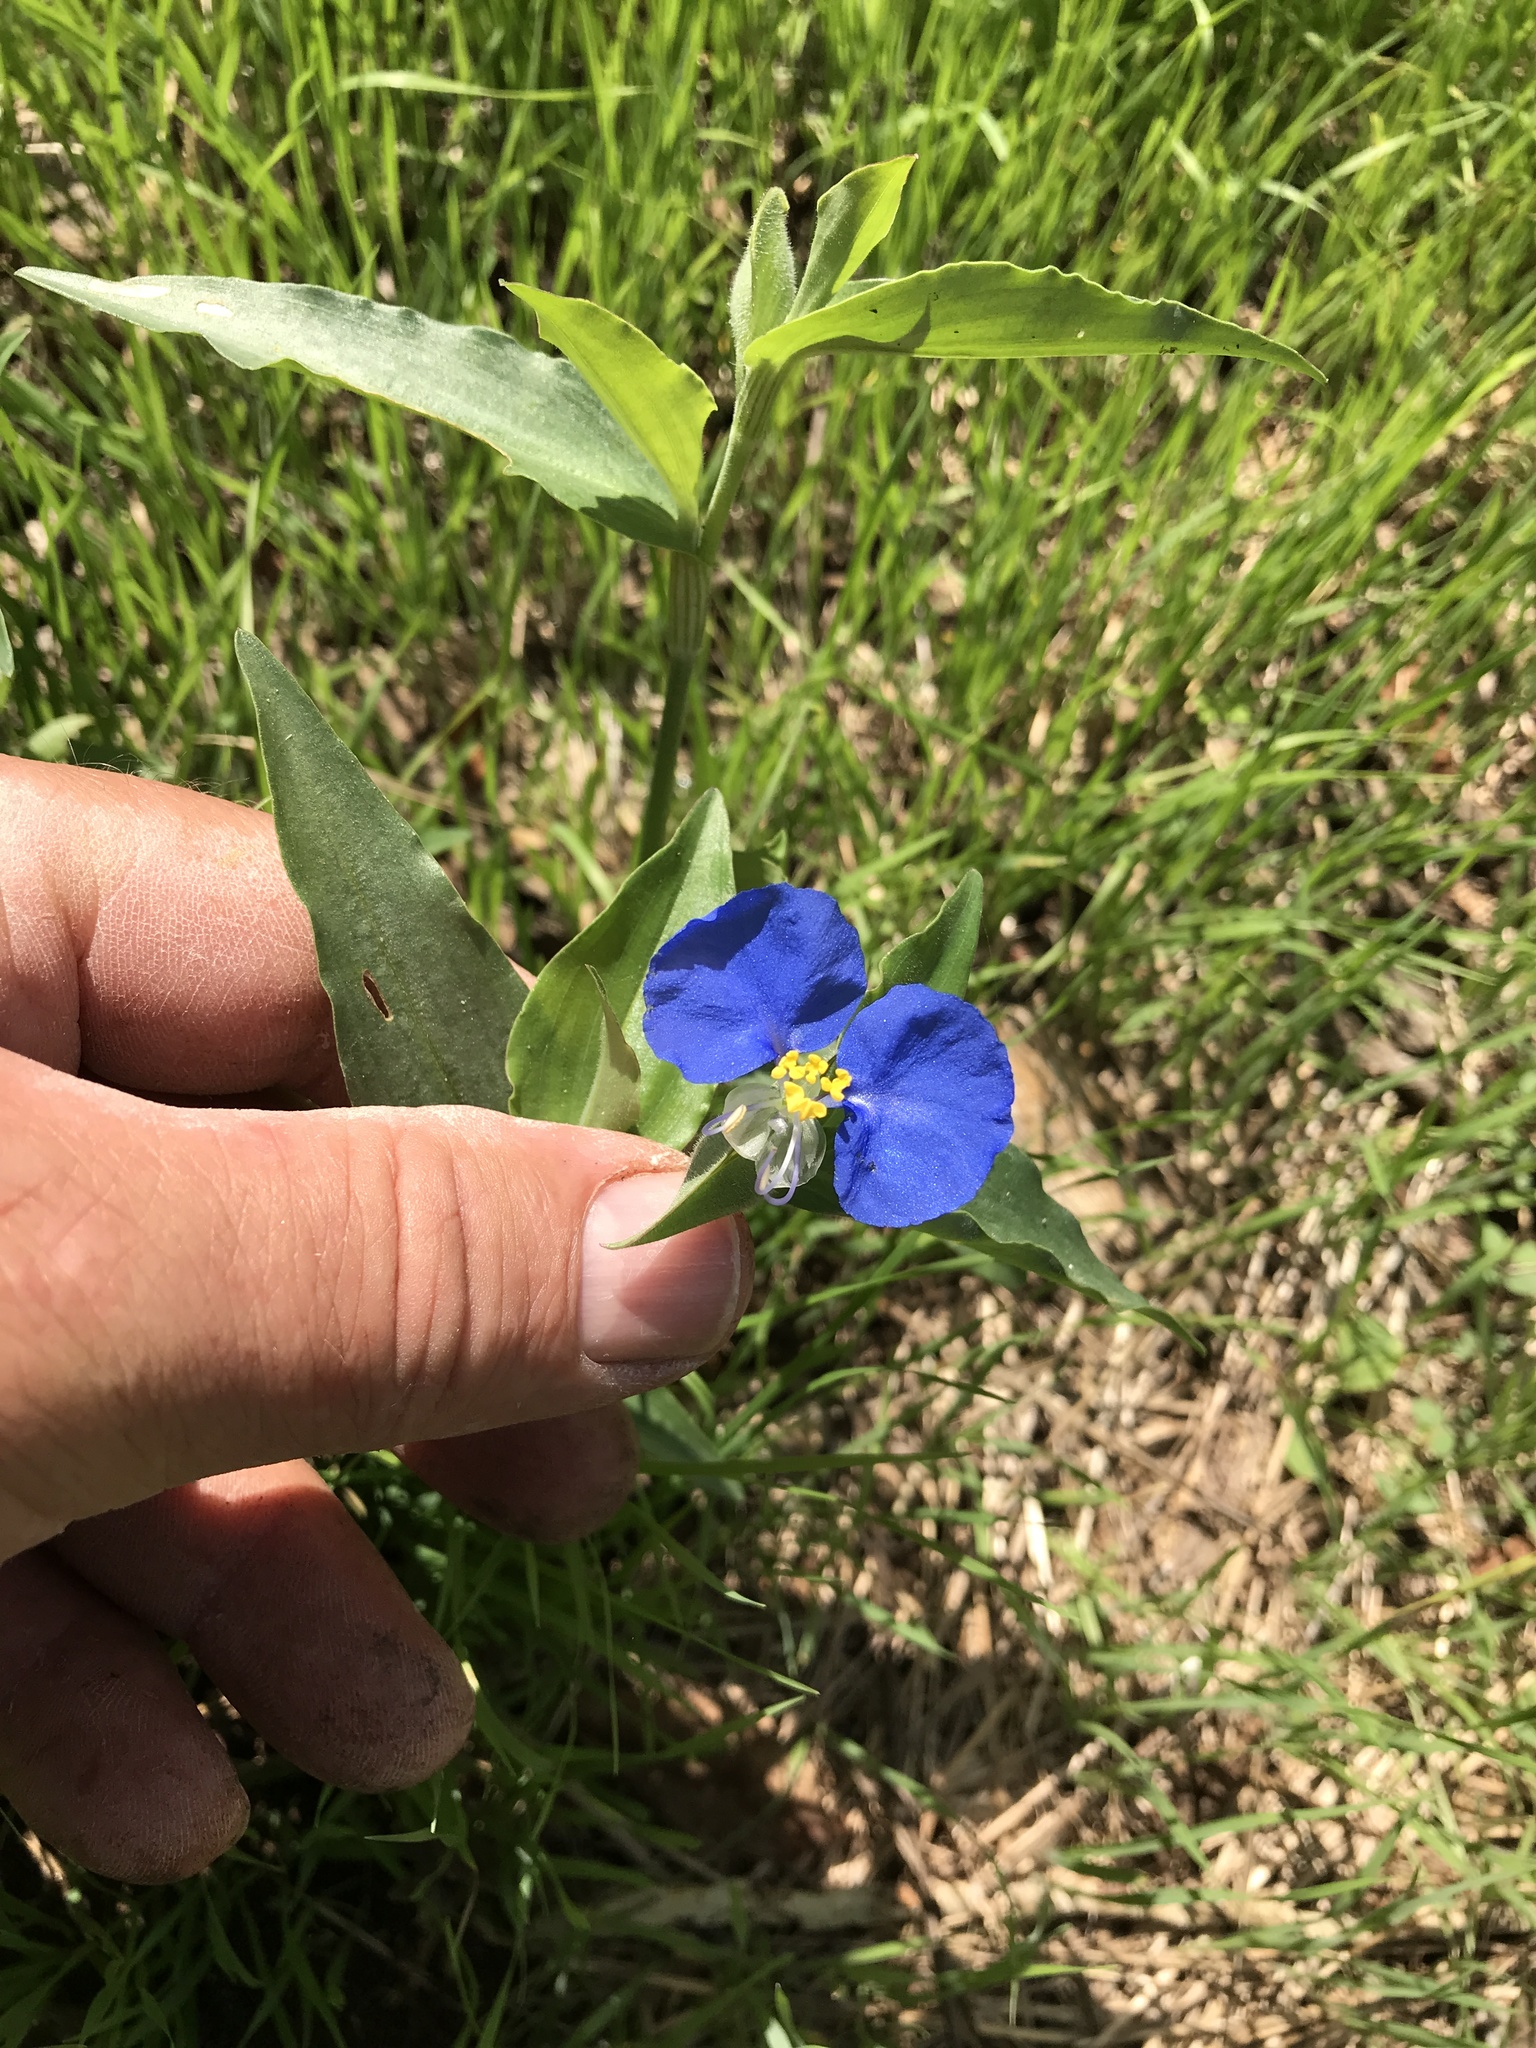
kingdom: Plantae
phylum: Tracheophyta
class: Liliopsida
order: Commelinales
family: Commelinaceae
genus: Commelina
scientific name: Commelina erecta
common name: Blousel blommetjie
